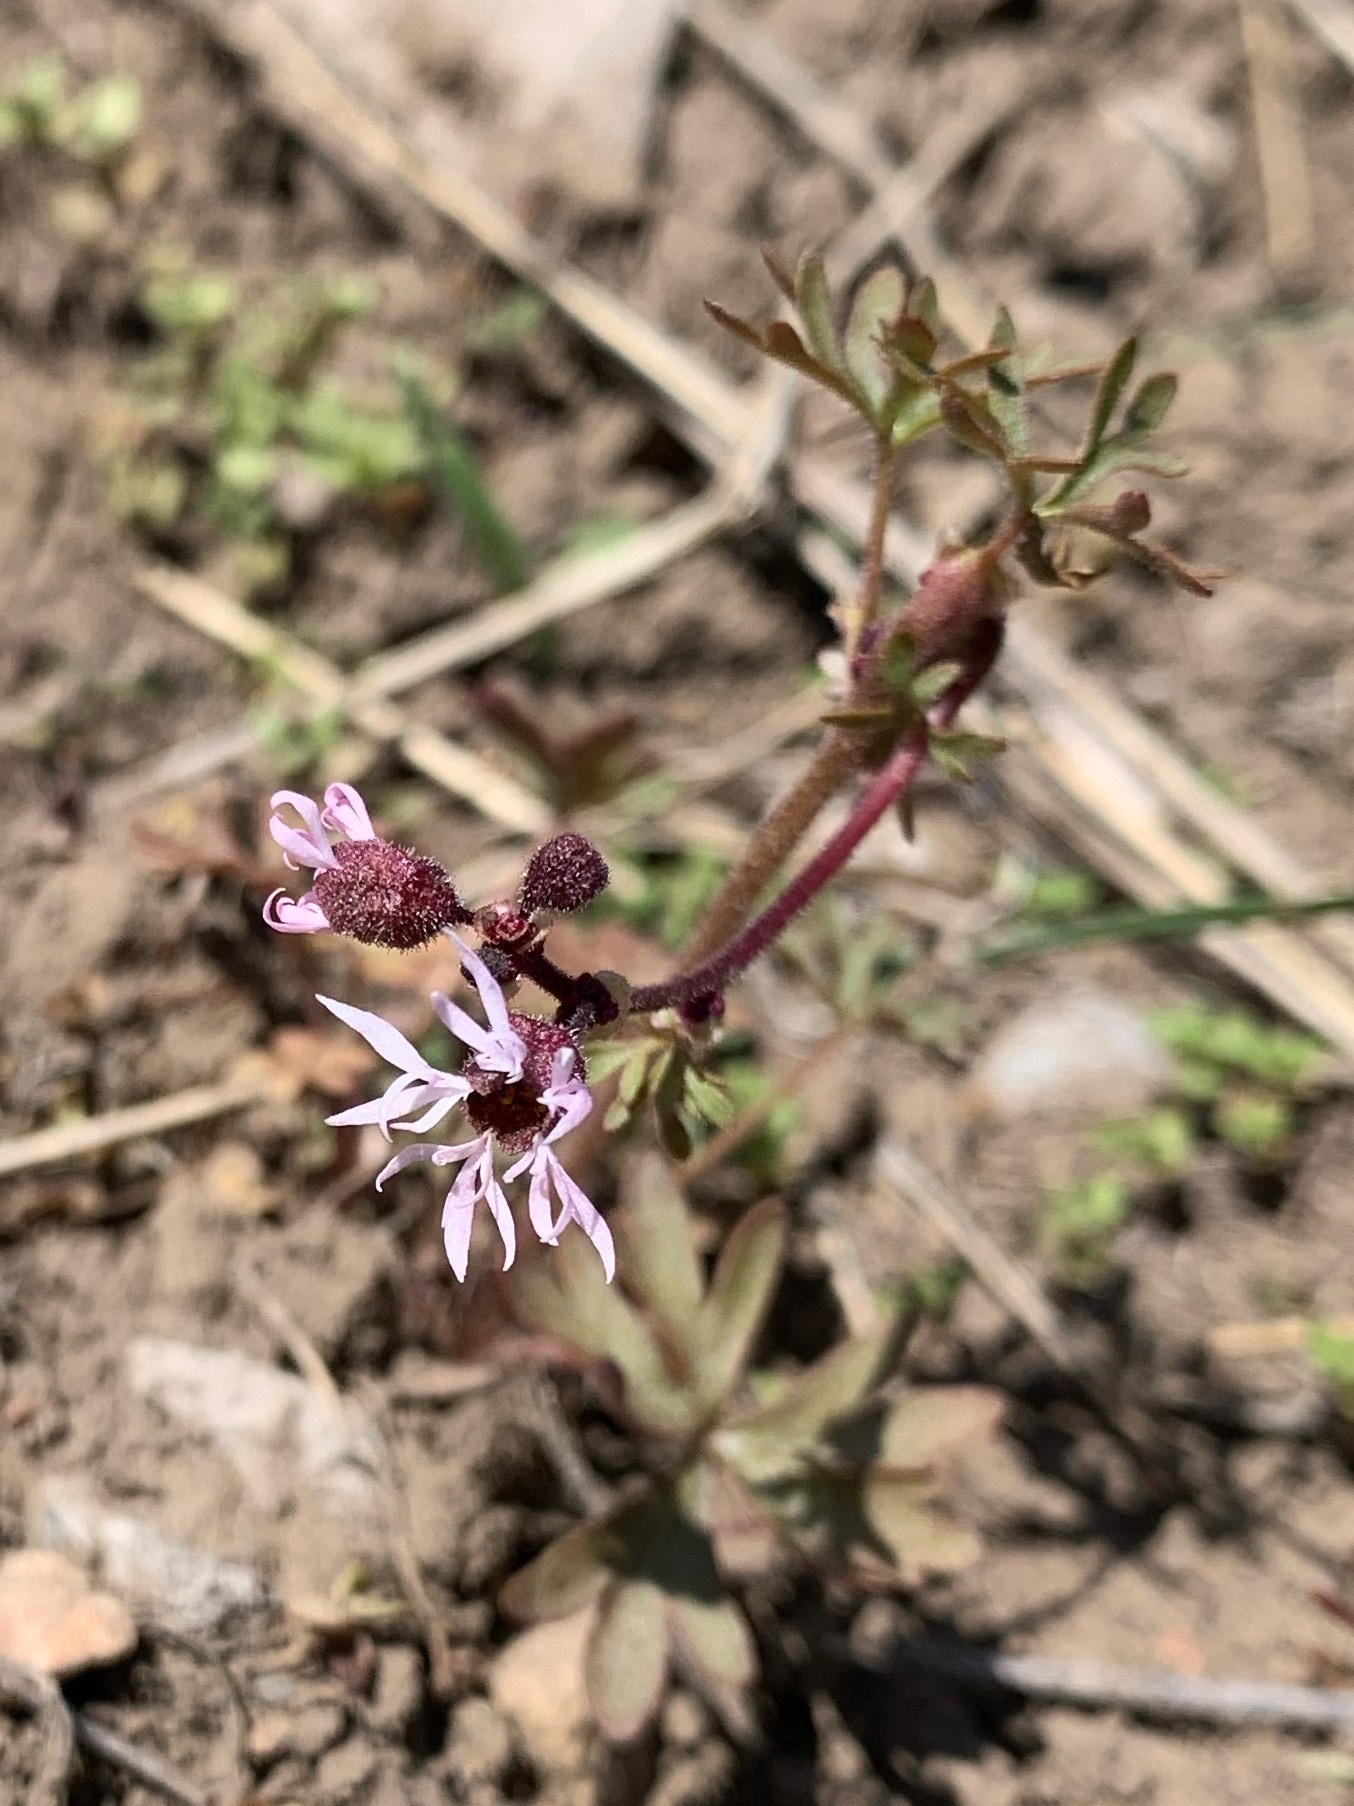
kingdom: Plantae
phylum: Tracheophyta
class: Magnoliopsida
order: Saxifragales
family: Saxifragaceae
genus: Lithophragma
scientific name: Lithophragma glabrum
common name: Bulbous prairie-star
